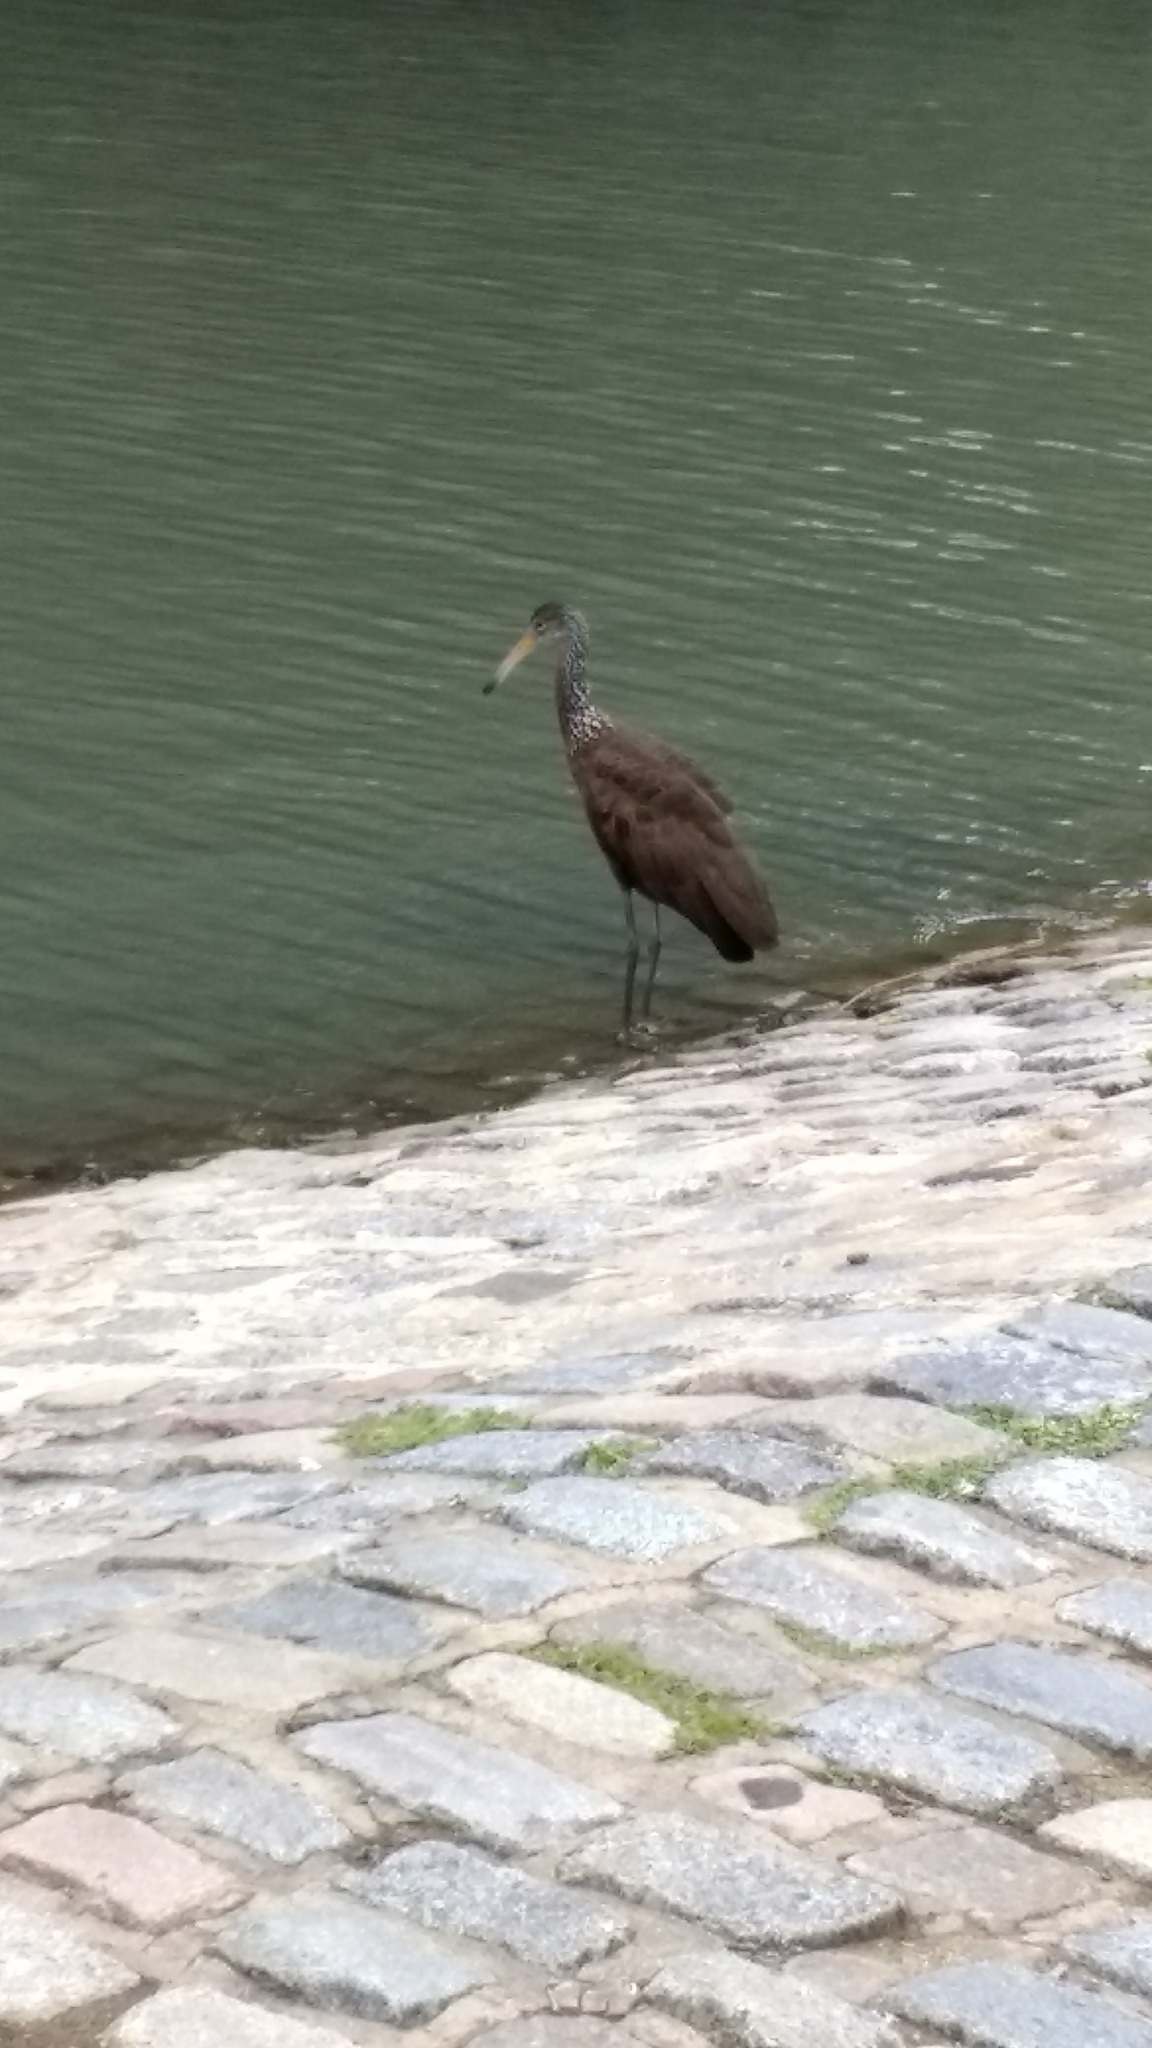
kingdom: Animalia
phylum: Chordata
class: Aves
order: Gruiformes
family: Aramidae
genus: Aramus
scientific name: Aramus guarauna
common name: Limpkin
